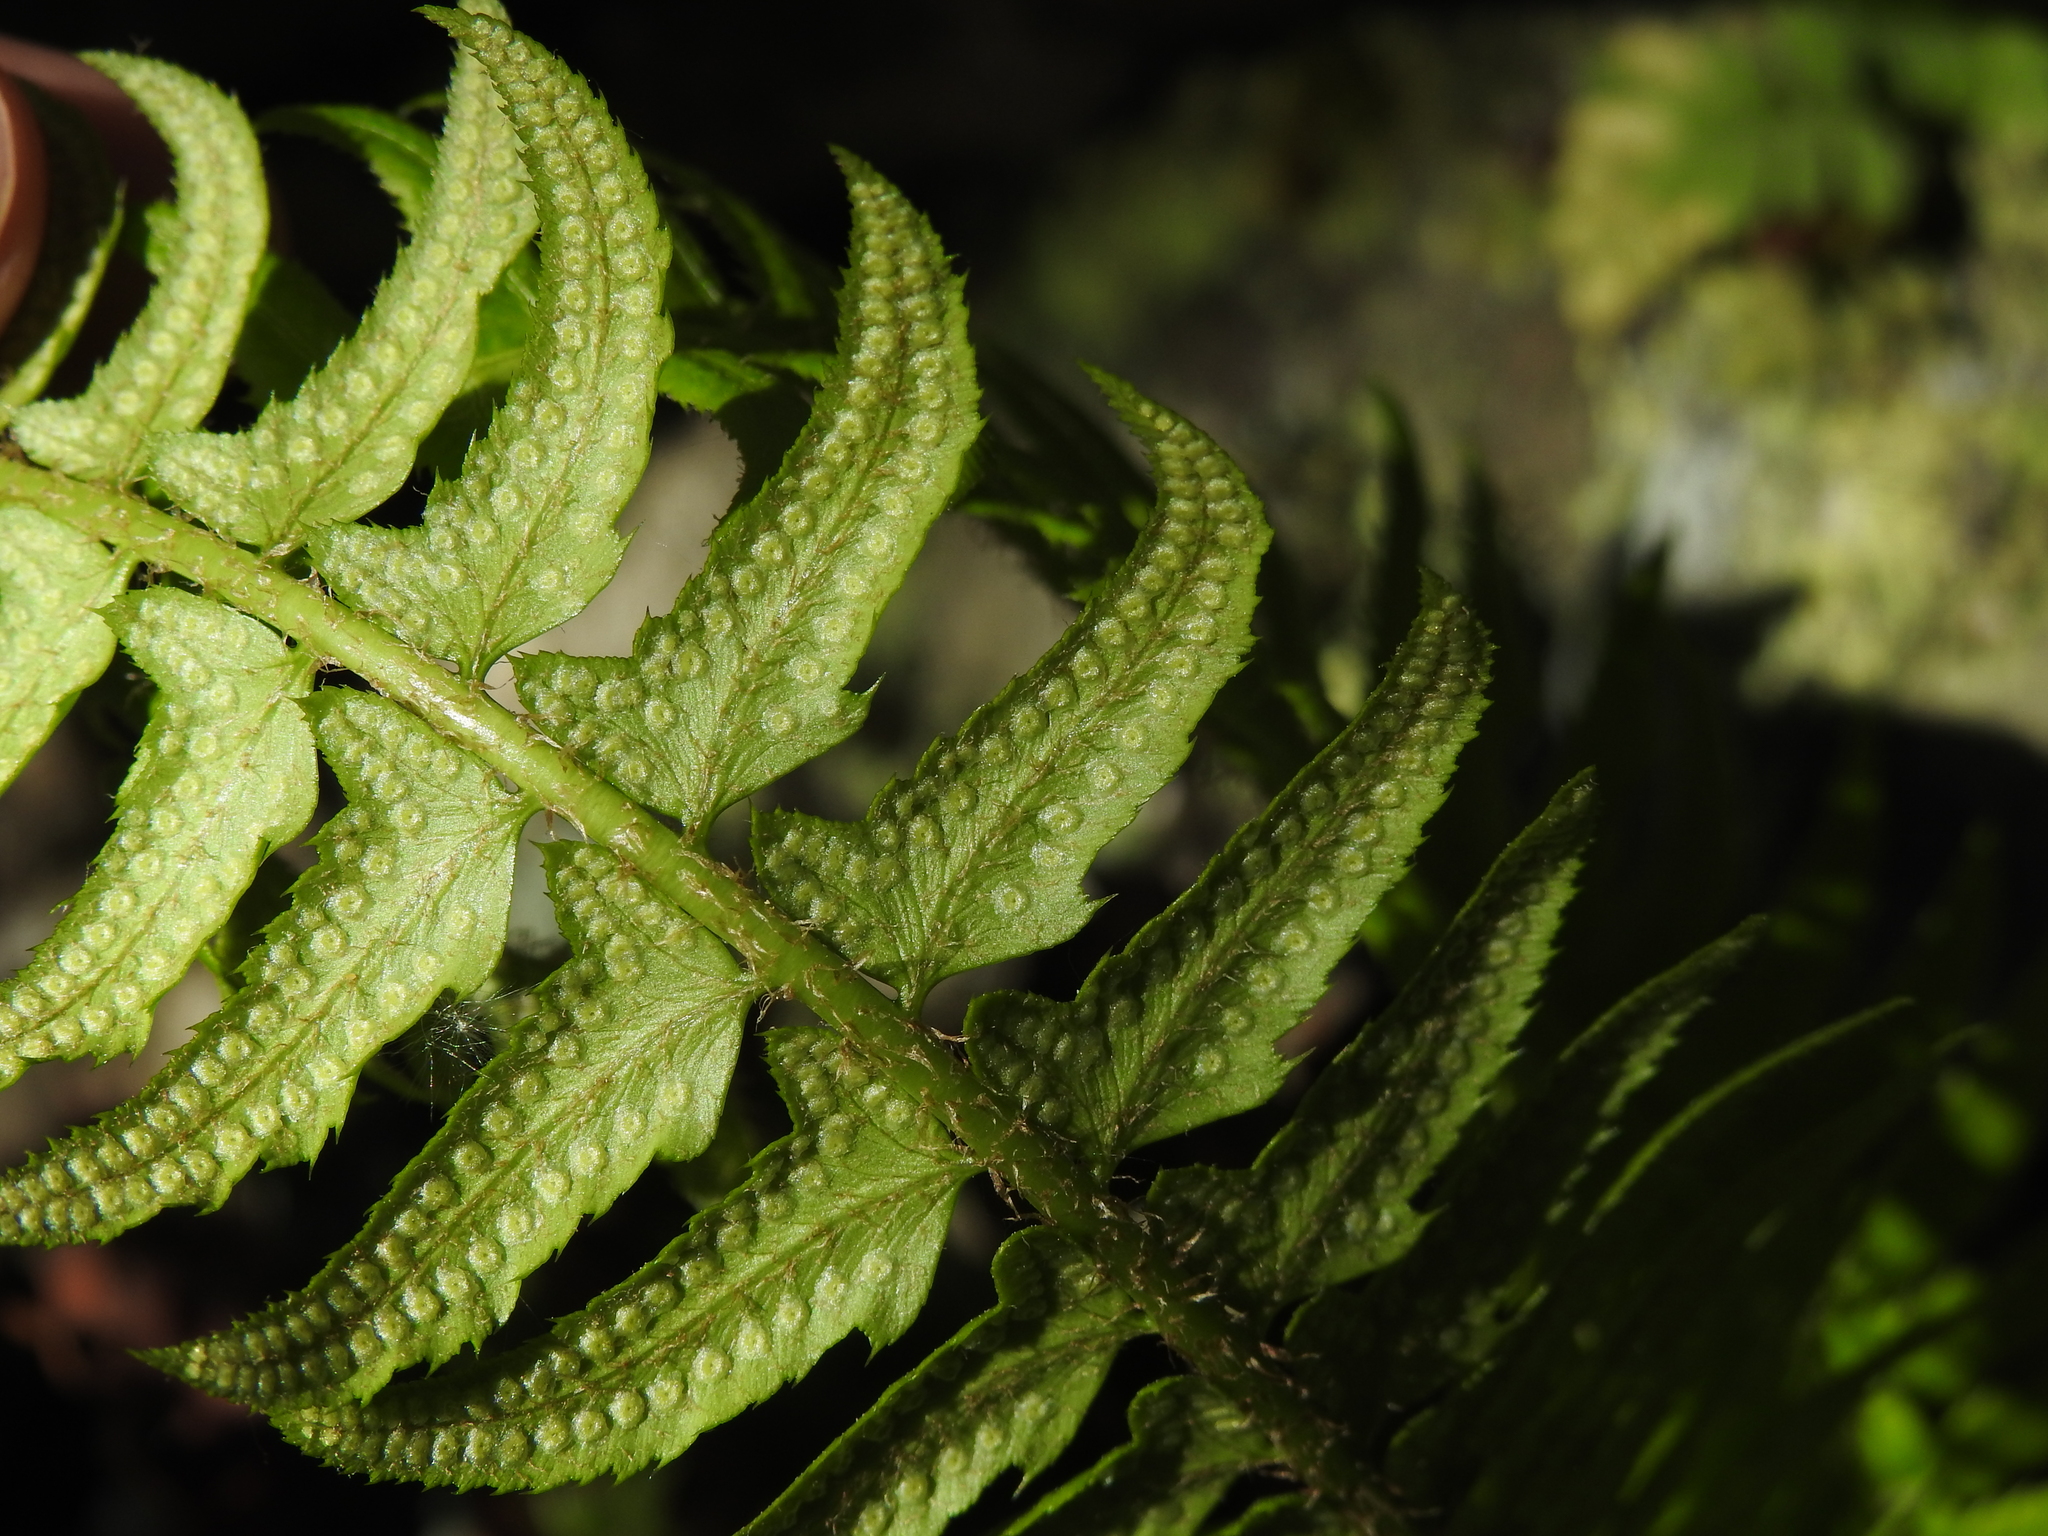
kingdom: Plantae
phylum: Tracheophyta
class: Polypodiopsida
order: Polypodiales
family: Dryopteridaceae
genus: Polystichum
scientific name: Polystichum lonchitis
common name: Holly fern
